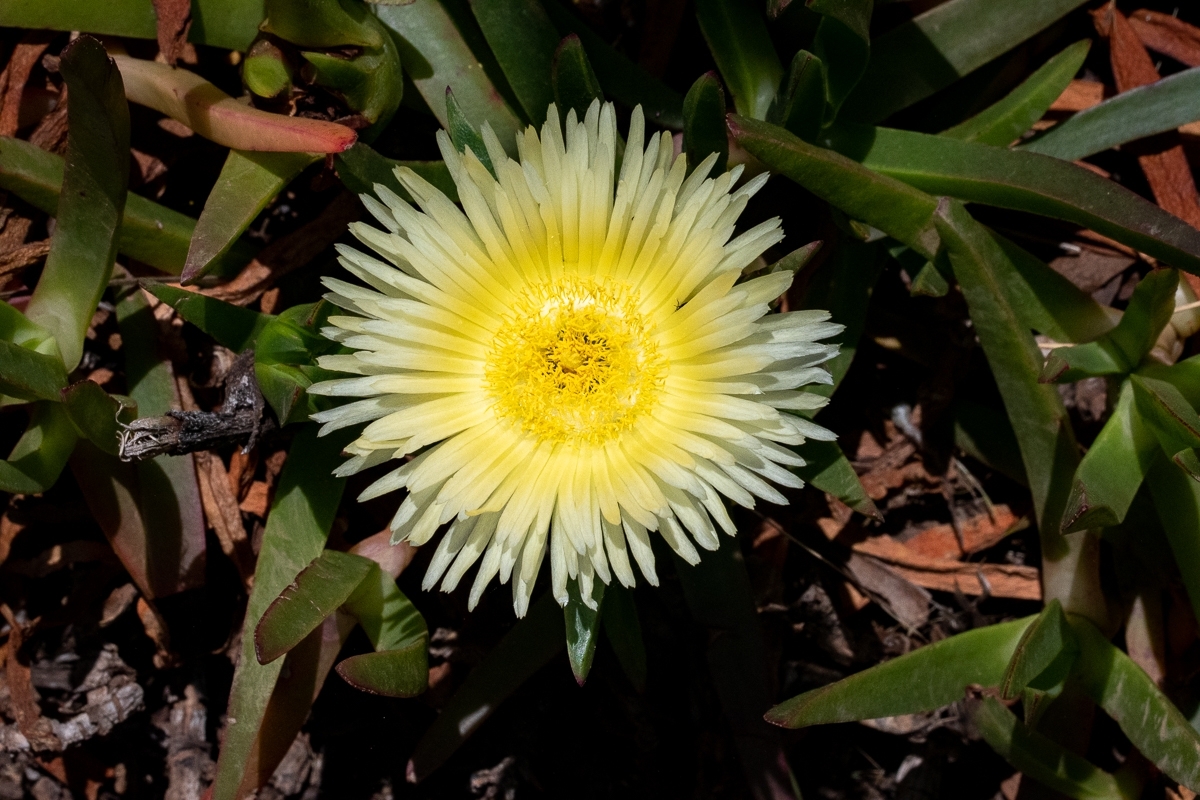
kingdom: Plantae
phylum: Tracheophyta
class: Magnoliopsida
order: Caryophyllales
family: Aizoaceae
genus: Carpobrotus
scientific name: Carpobrotus edulis
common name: Hottentot-fig
